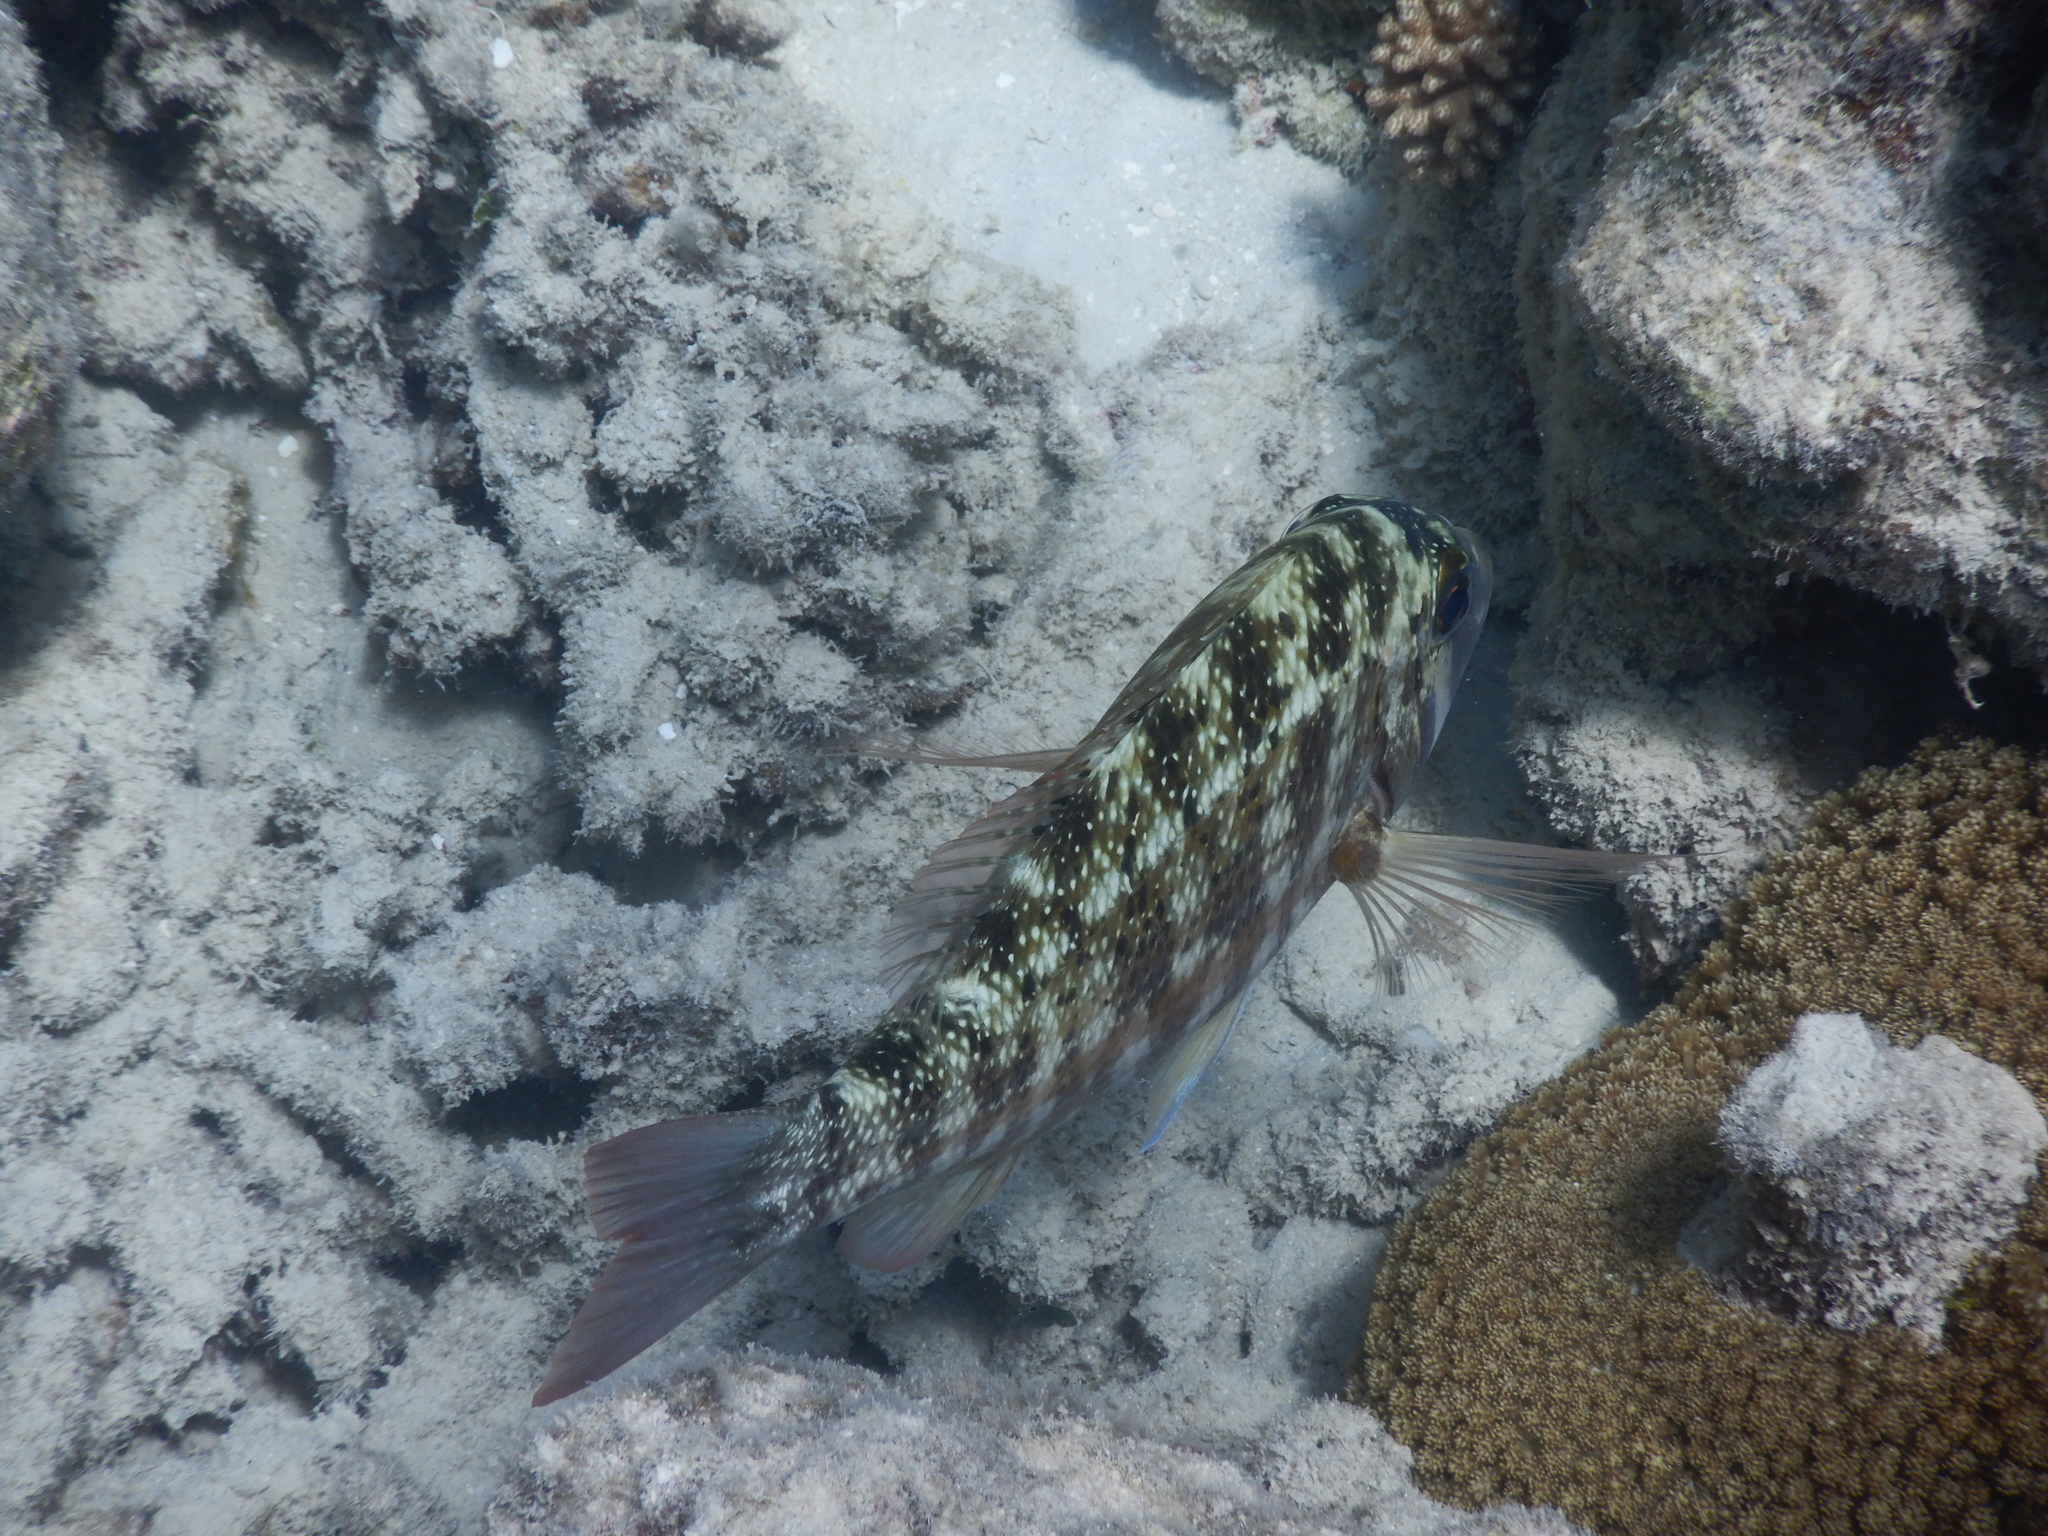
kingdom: Animalia
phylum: Chordata
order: Perciformes
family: Lethrinidae
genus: Lethrinus
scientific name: Lethrinus obsoletus
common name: Orange-striped emperor
